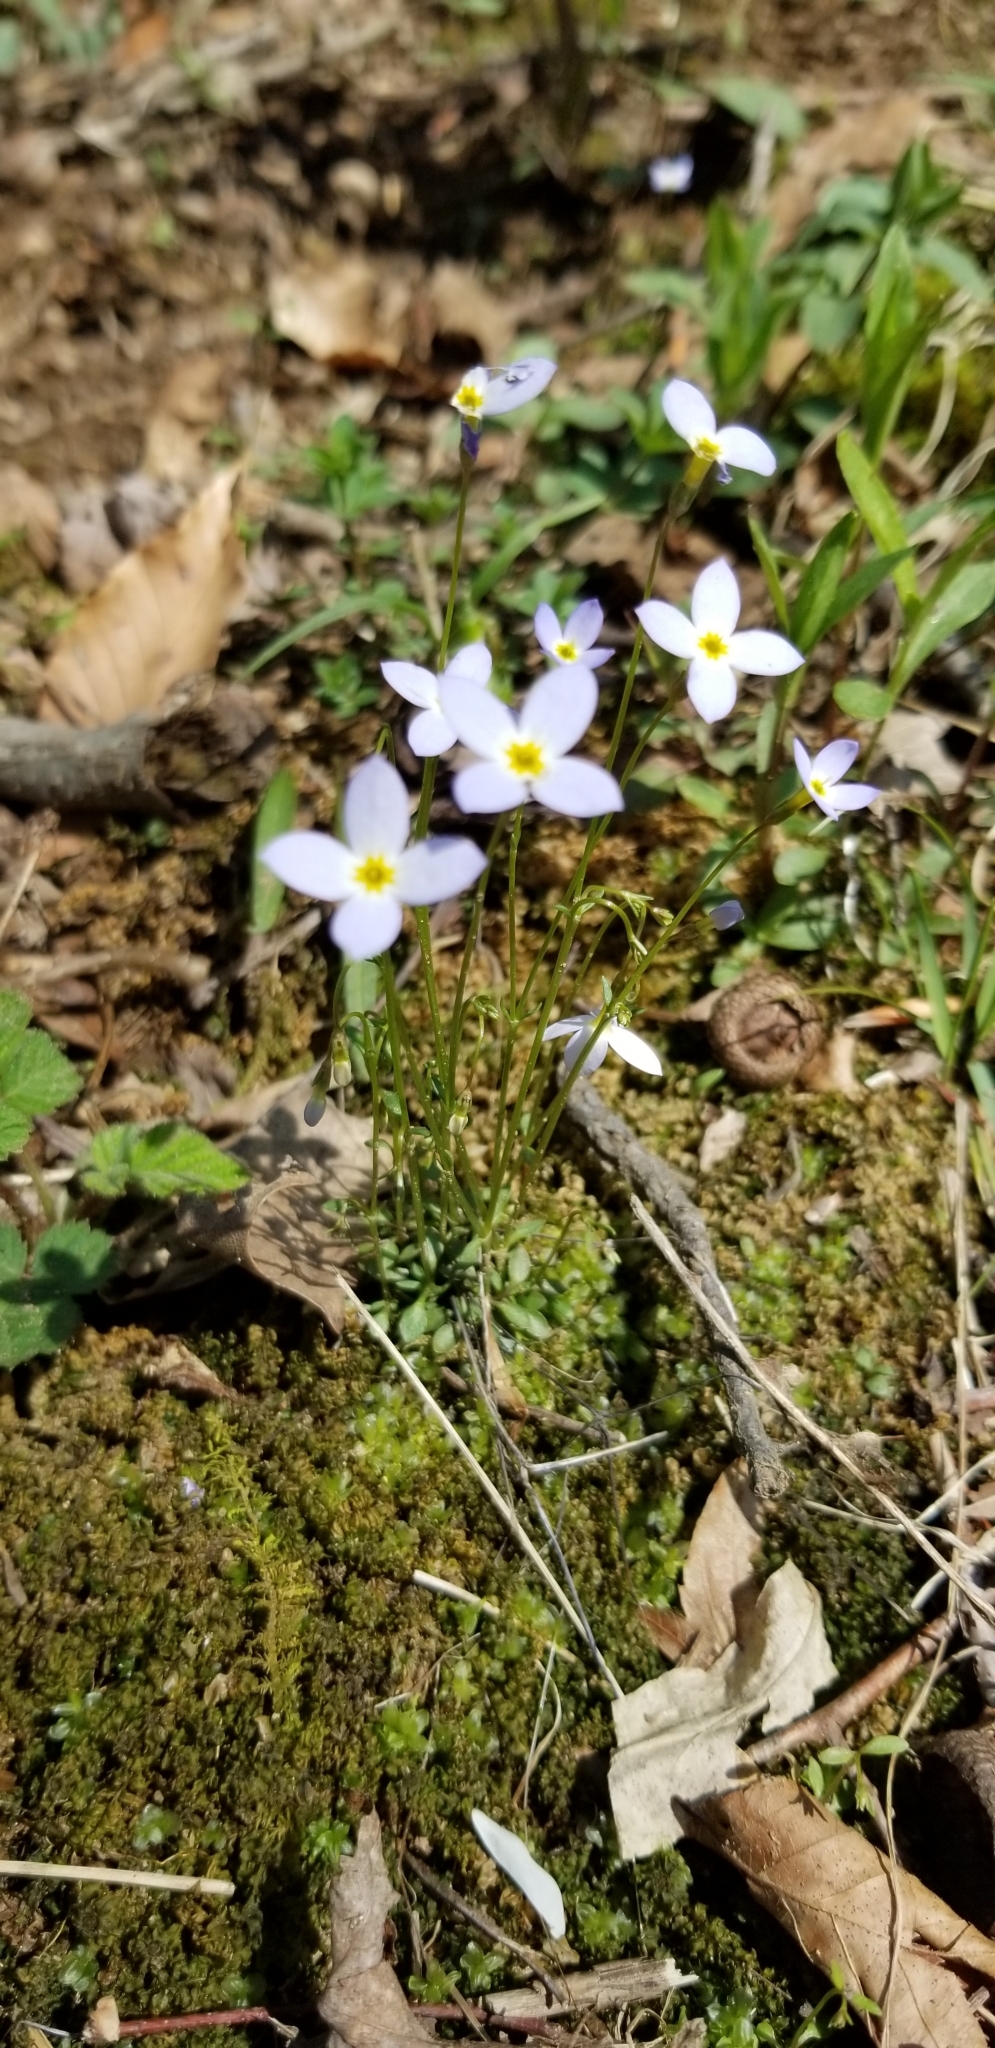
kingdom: Plantae
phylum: Tracheophyta
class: Magnoliopsida
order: Gentianales
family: Rubiaceae
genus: Houstonia
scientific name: Houstonia caerulea
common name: Bluets
